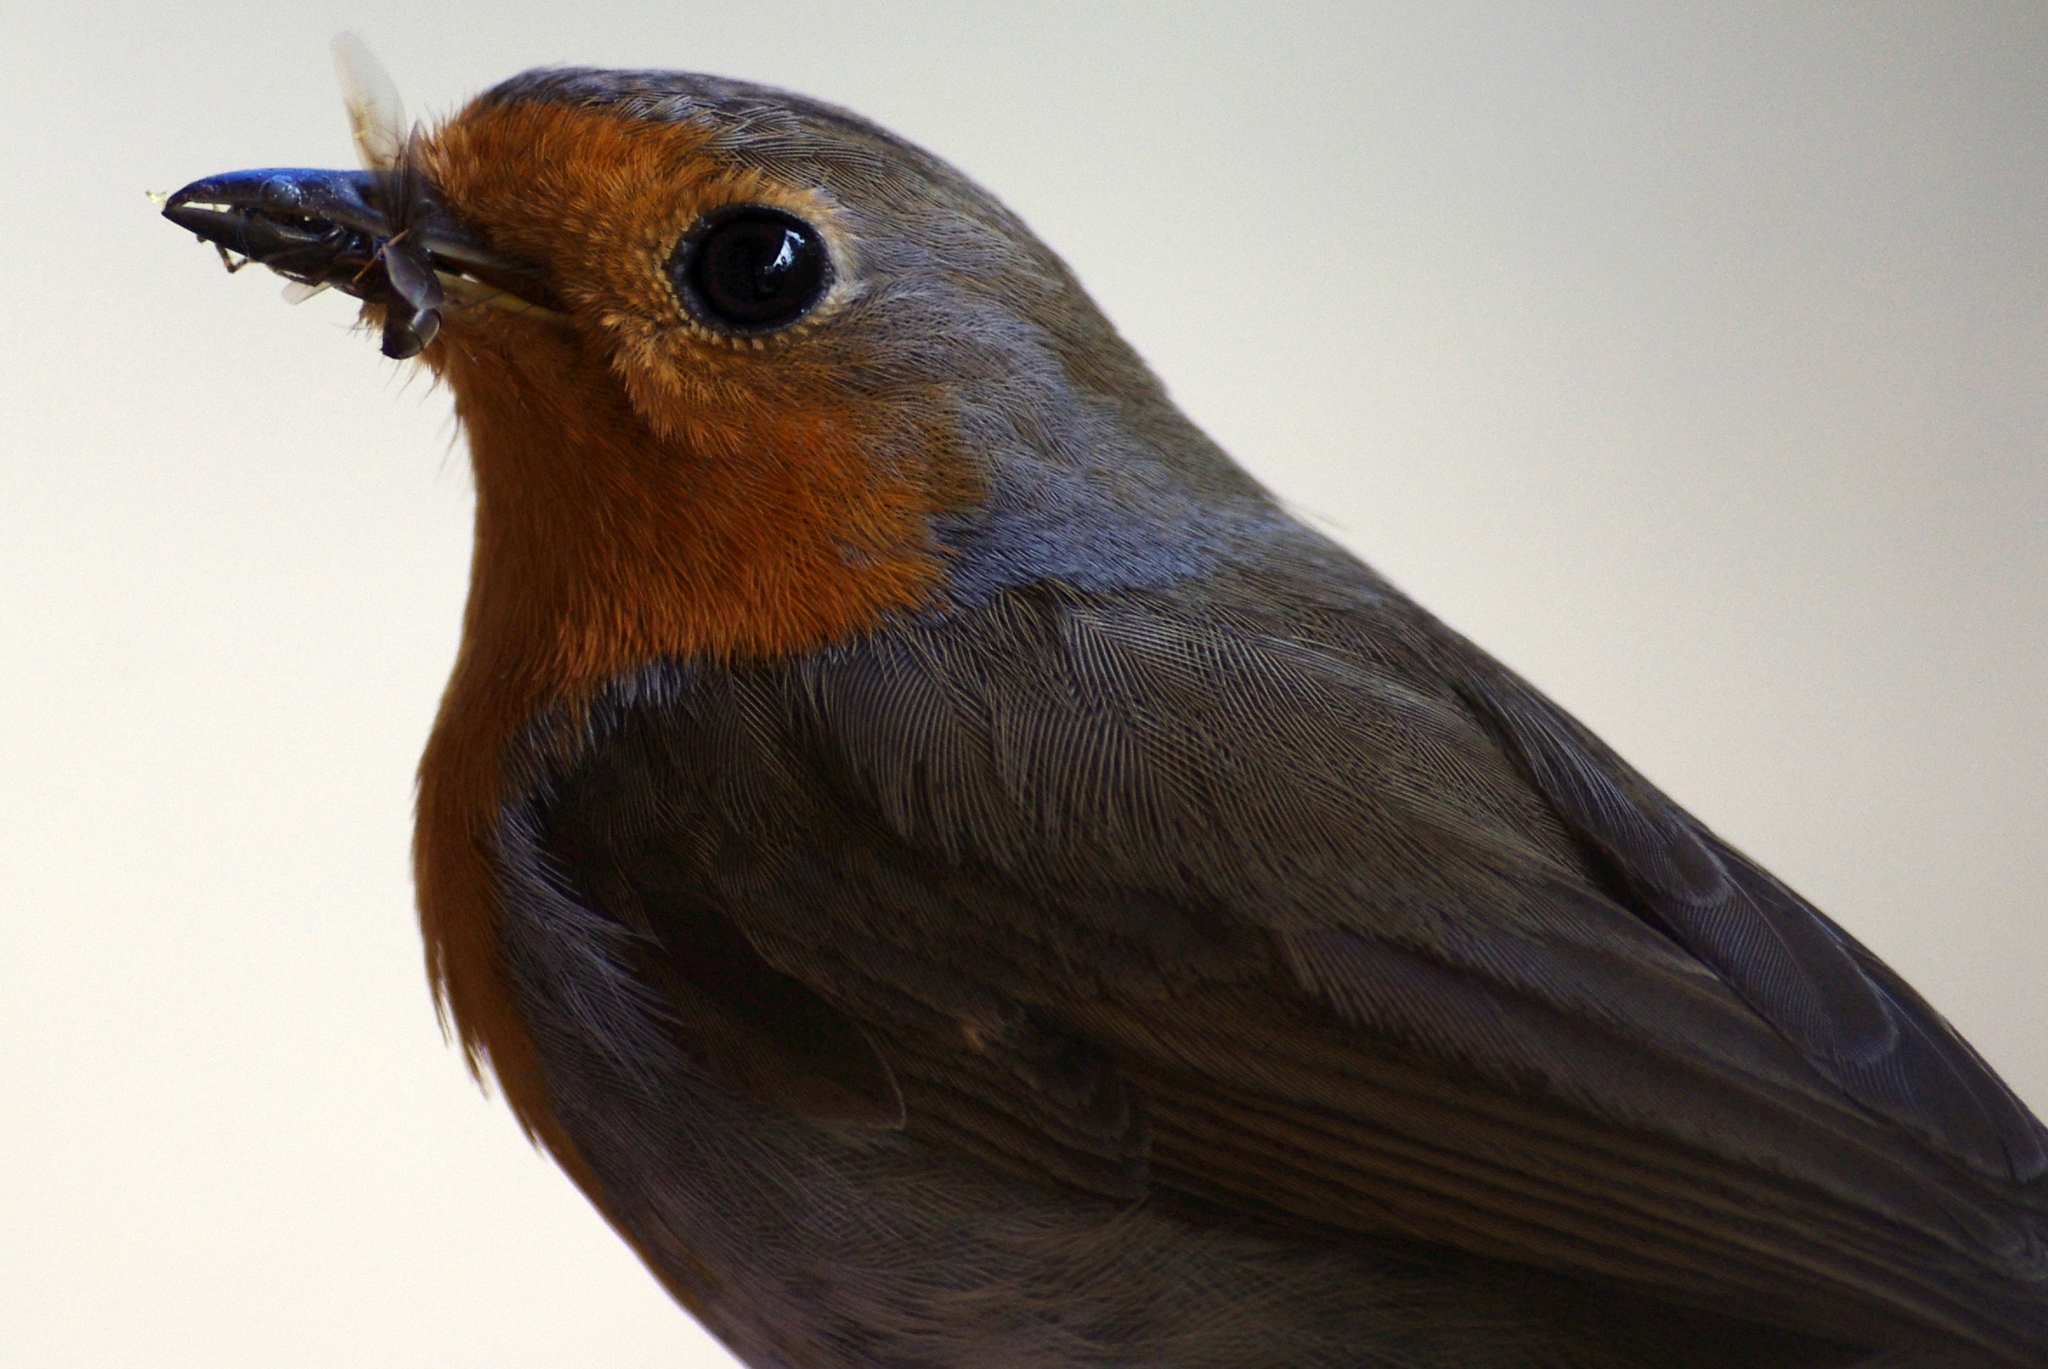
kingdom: Animalia
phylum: Chordata
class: Aves
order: Passeriformes
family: Muscicapidae
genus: Erithacus
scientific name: Erithacus rubecula
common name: European robin
